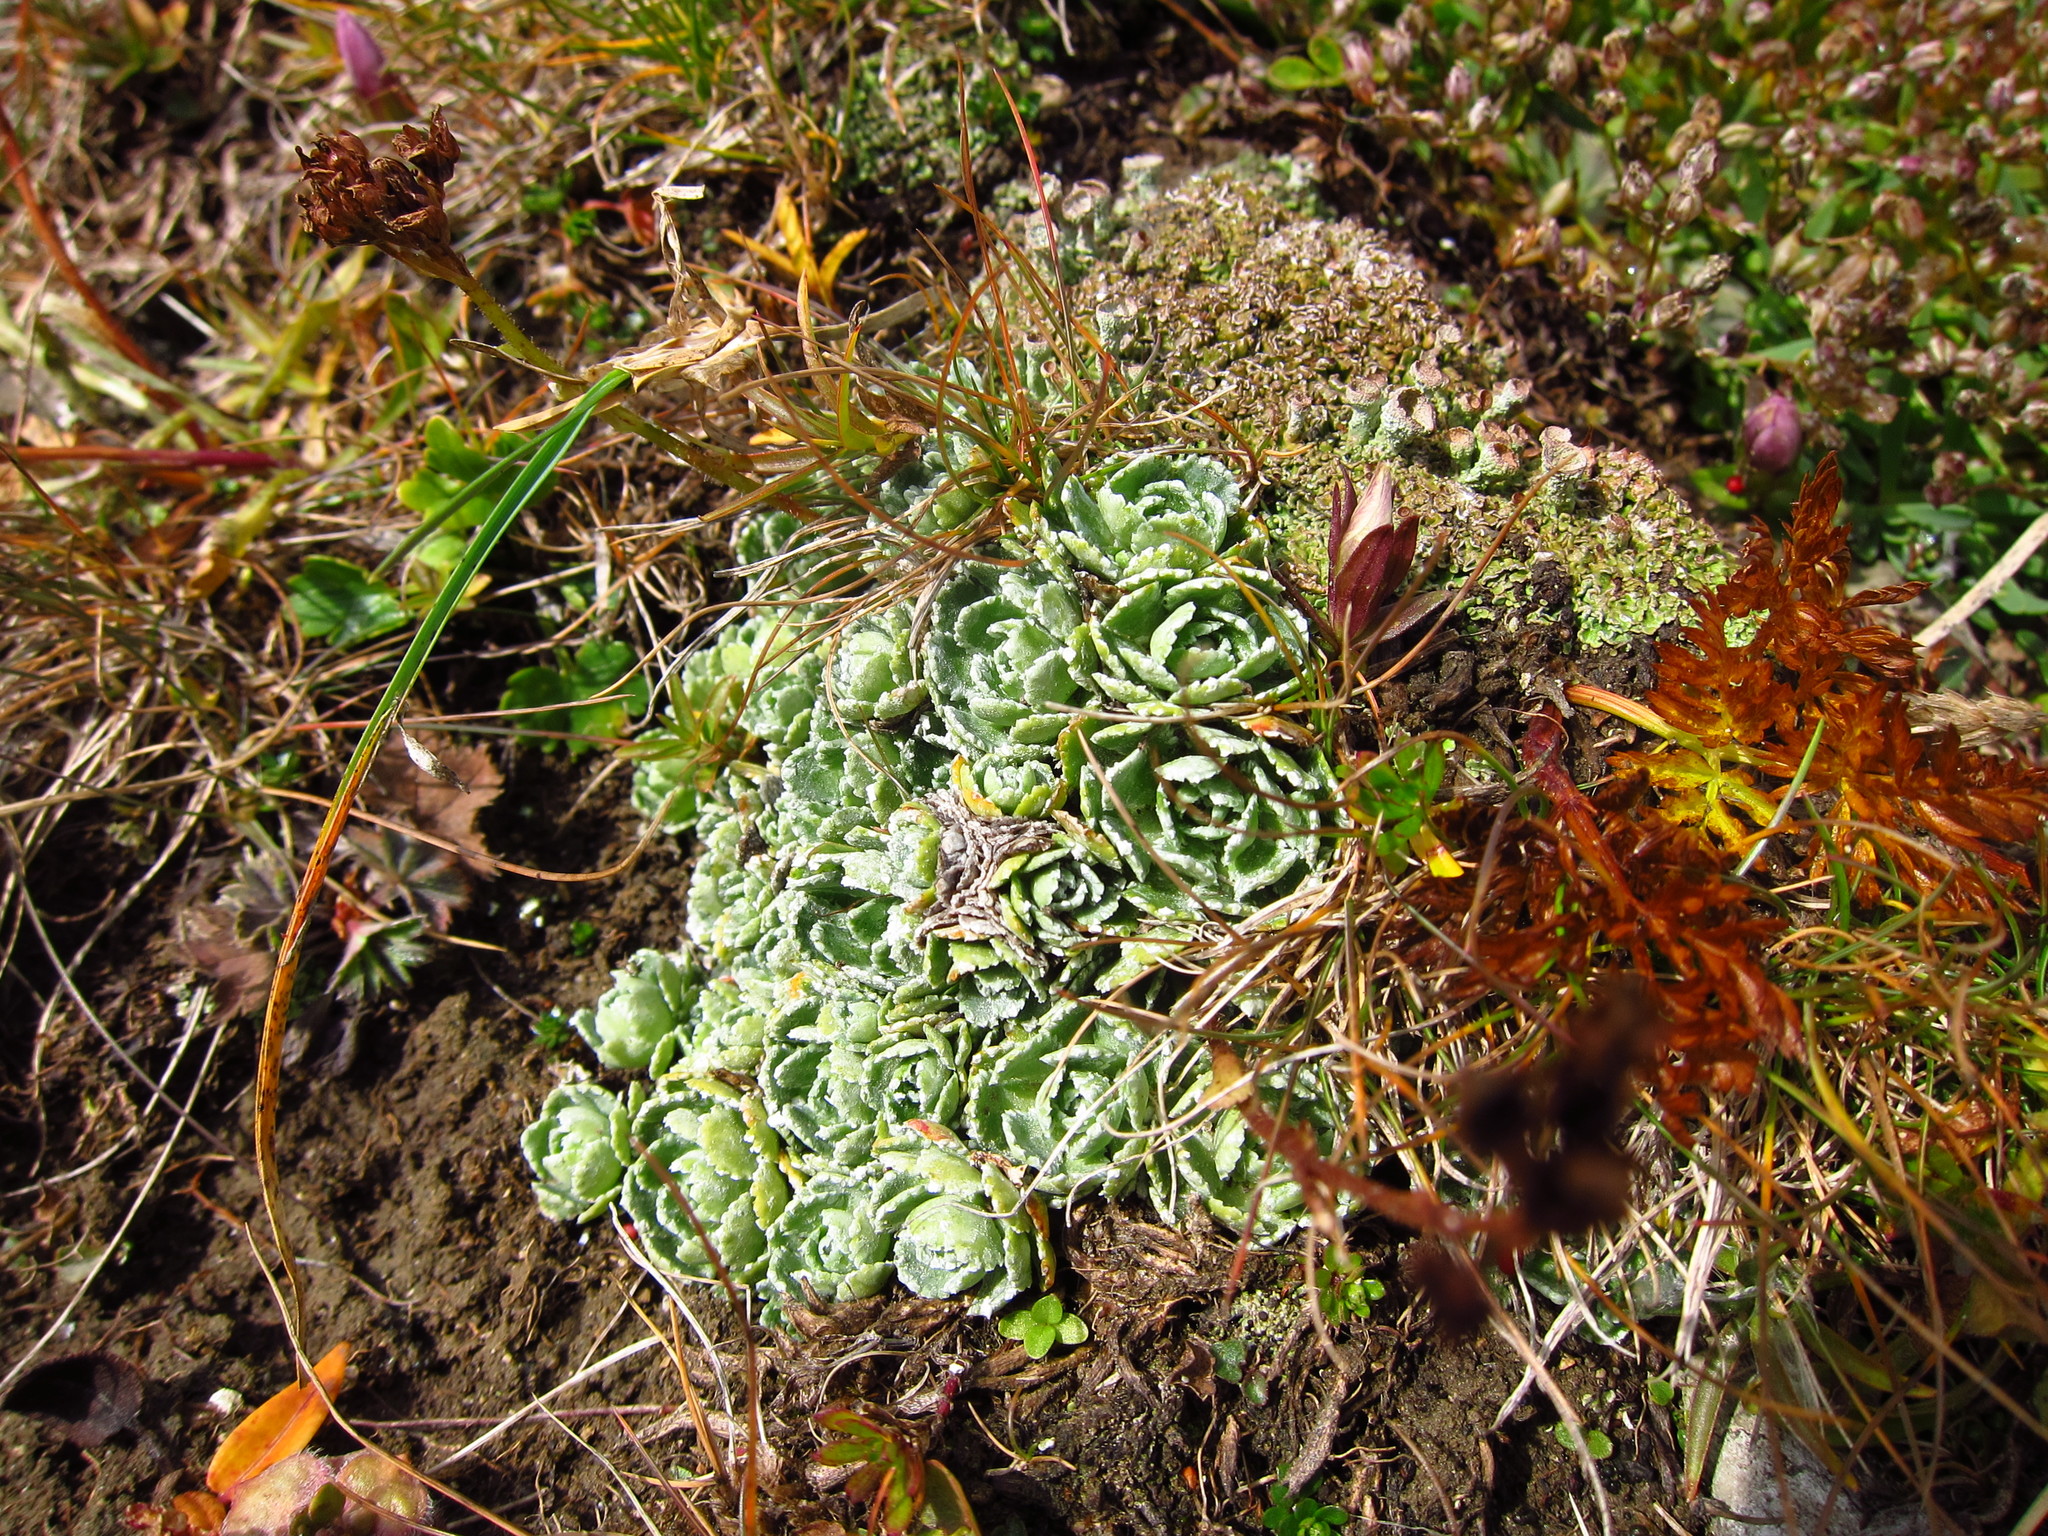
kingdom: Plantae
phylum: Tracheophyta
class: Magnoliopsida
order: Saxifragales
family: Saxifragaceae
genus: Saxifraga
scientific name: Saxifraga paniculata
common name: Livelong saxifrage
